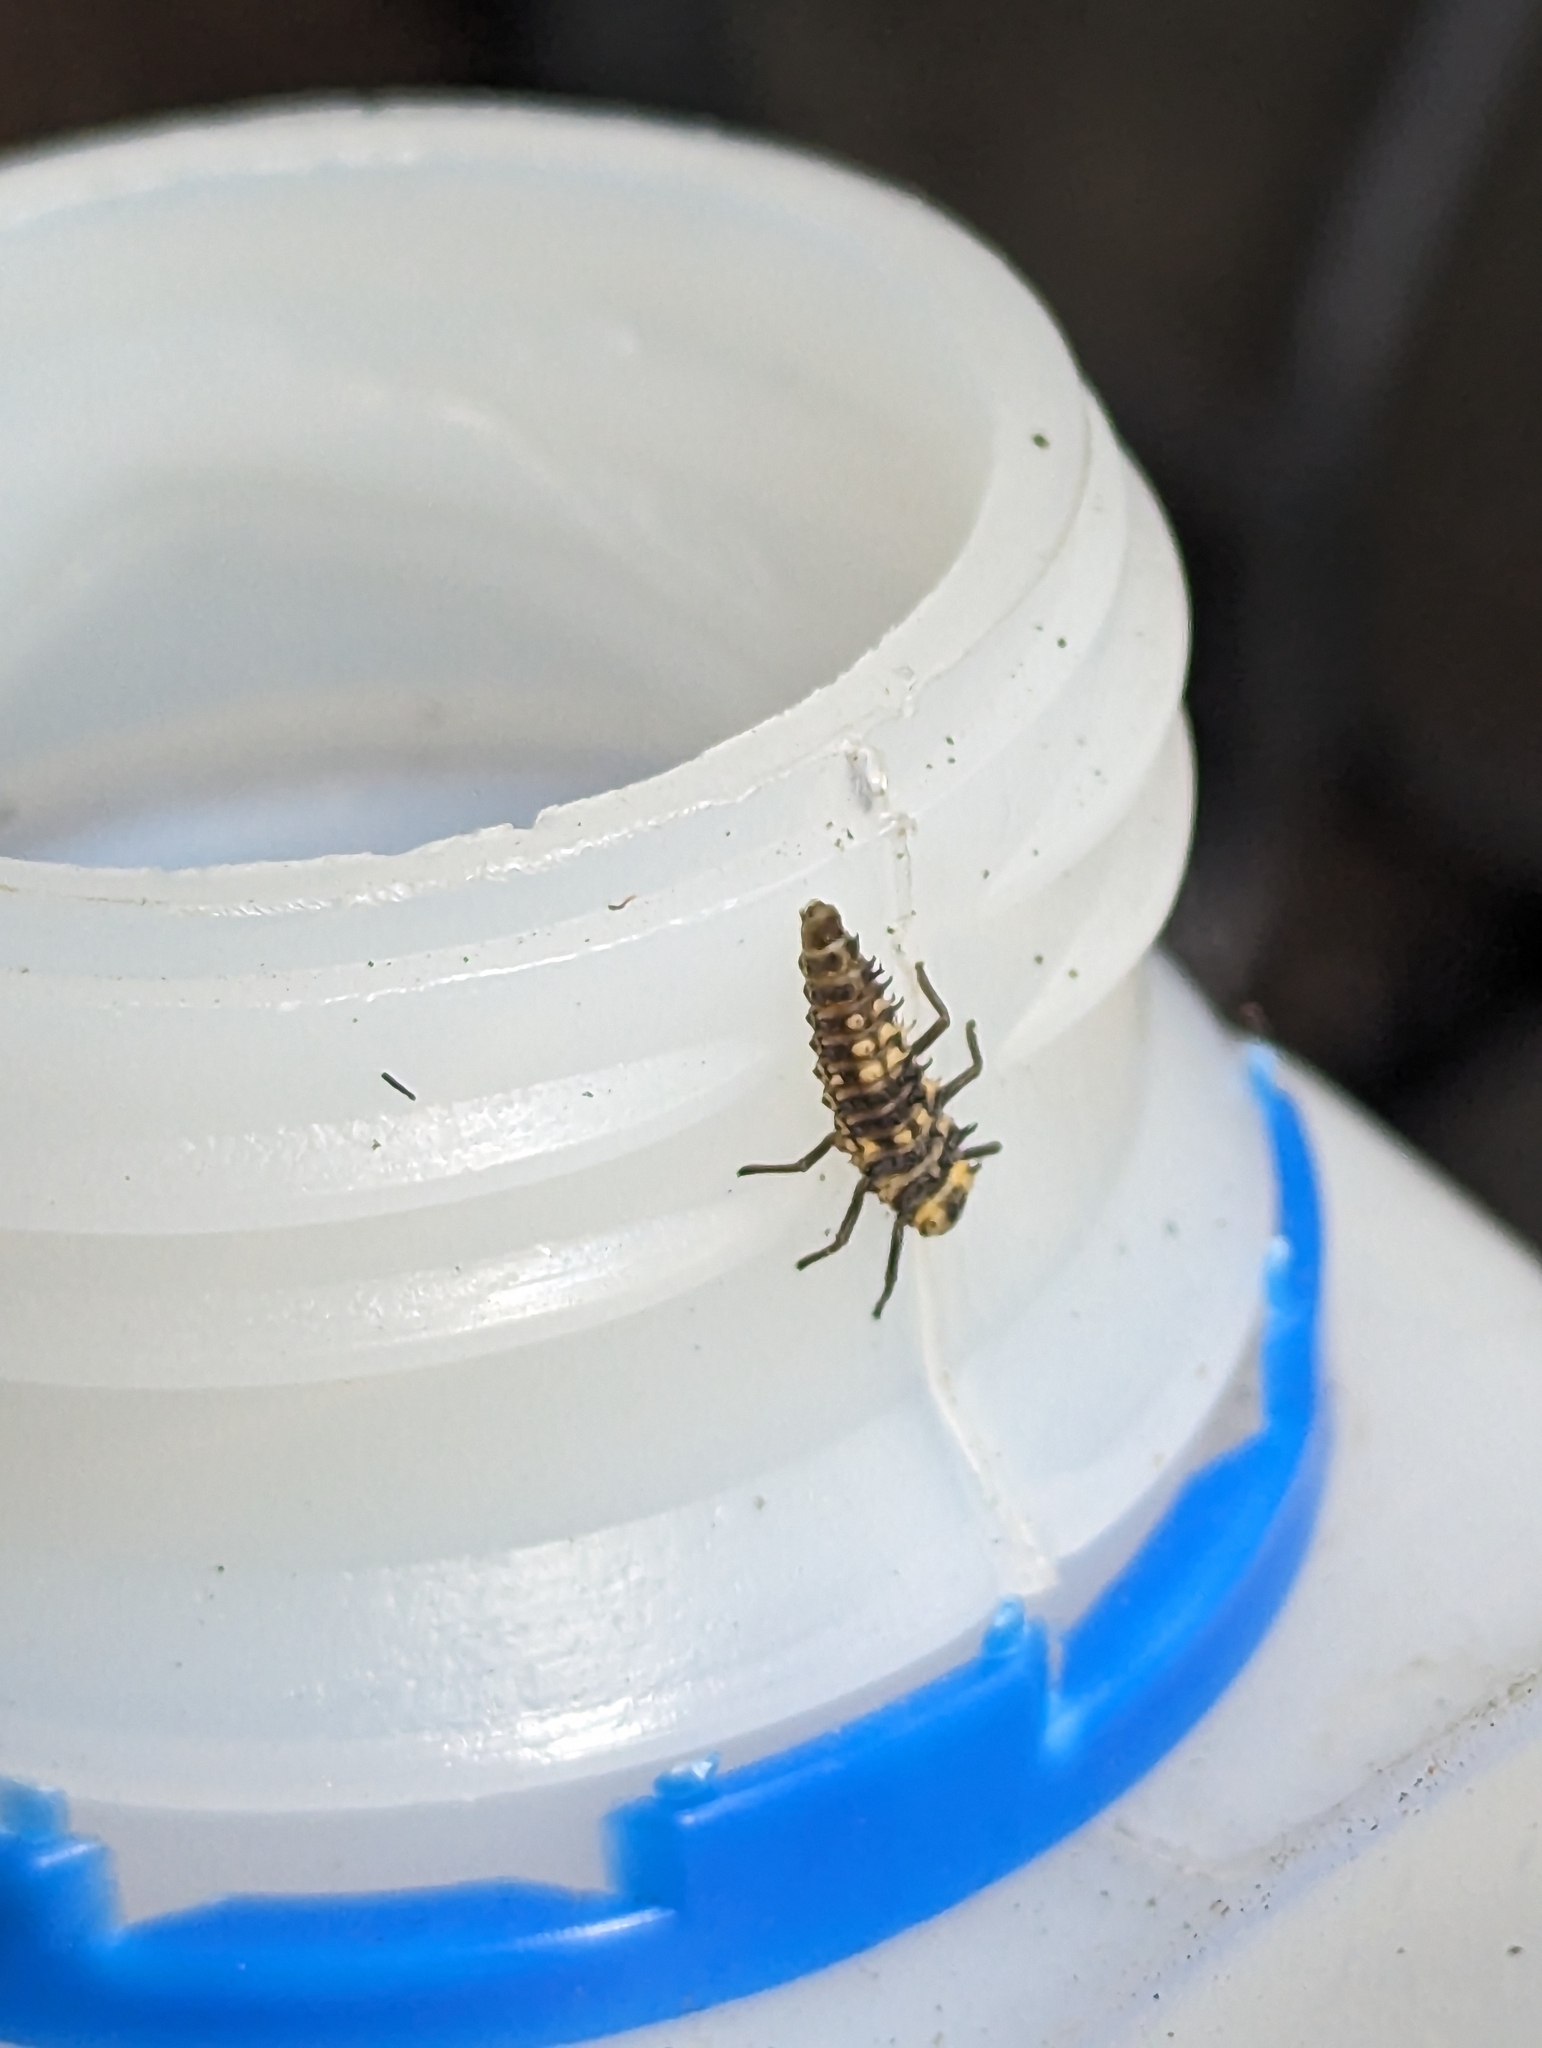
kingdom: Animalia
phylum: Arthropoda
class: Insecta
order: Coleoptera
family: Coccinellidae
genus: Harmonia
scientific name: Harmonia
